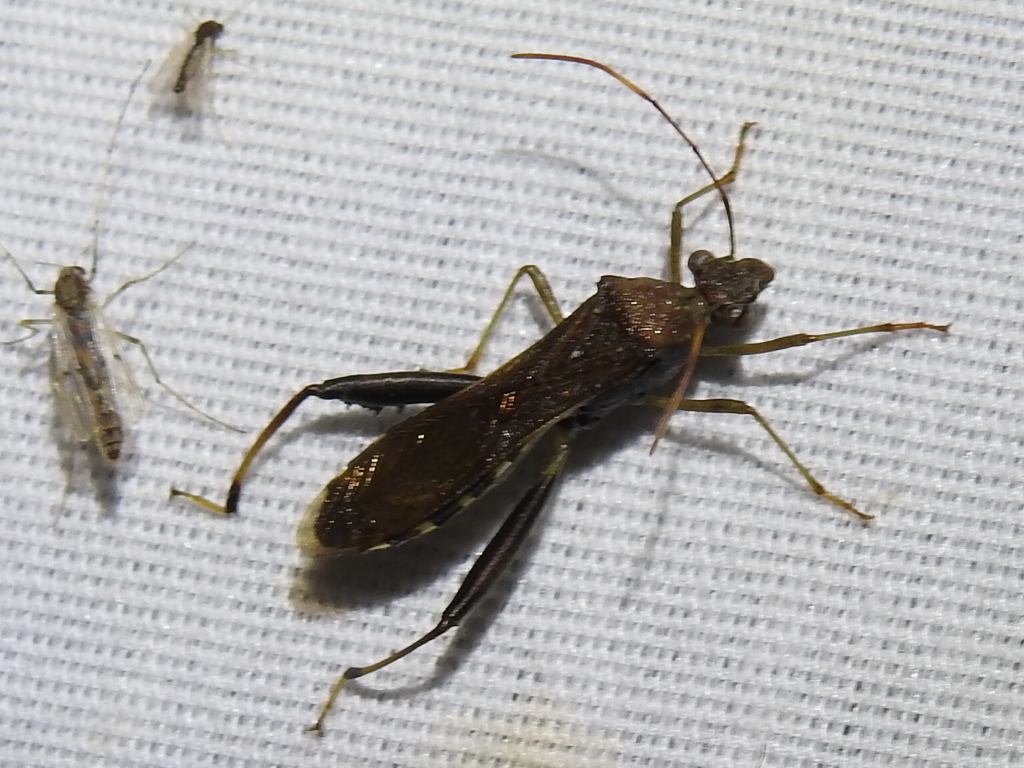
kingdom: Animalia
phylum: Arthropoda
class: Insecta
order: Hemiptera
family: Alydidae
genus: Hyalymenus
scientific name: Hyalymenus tarsatus
